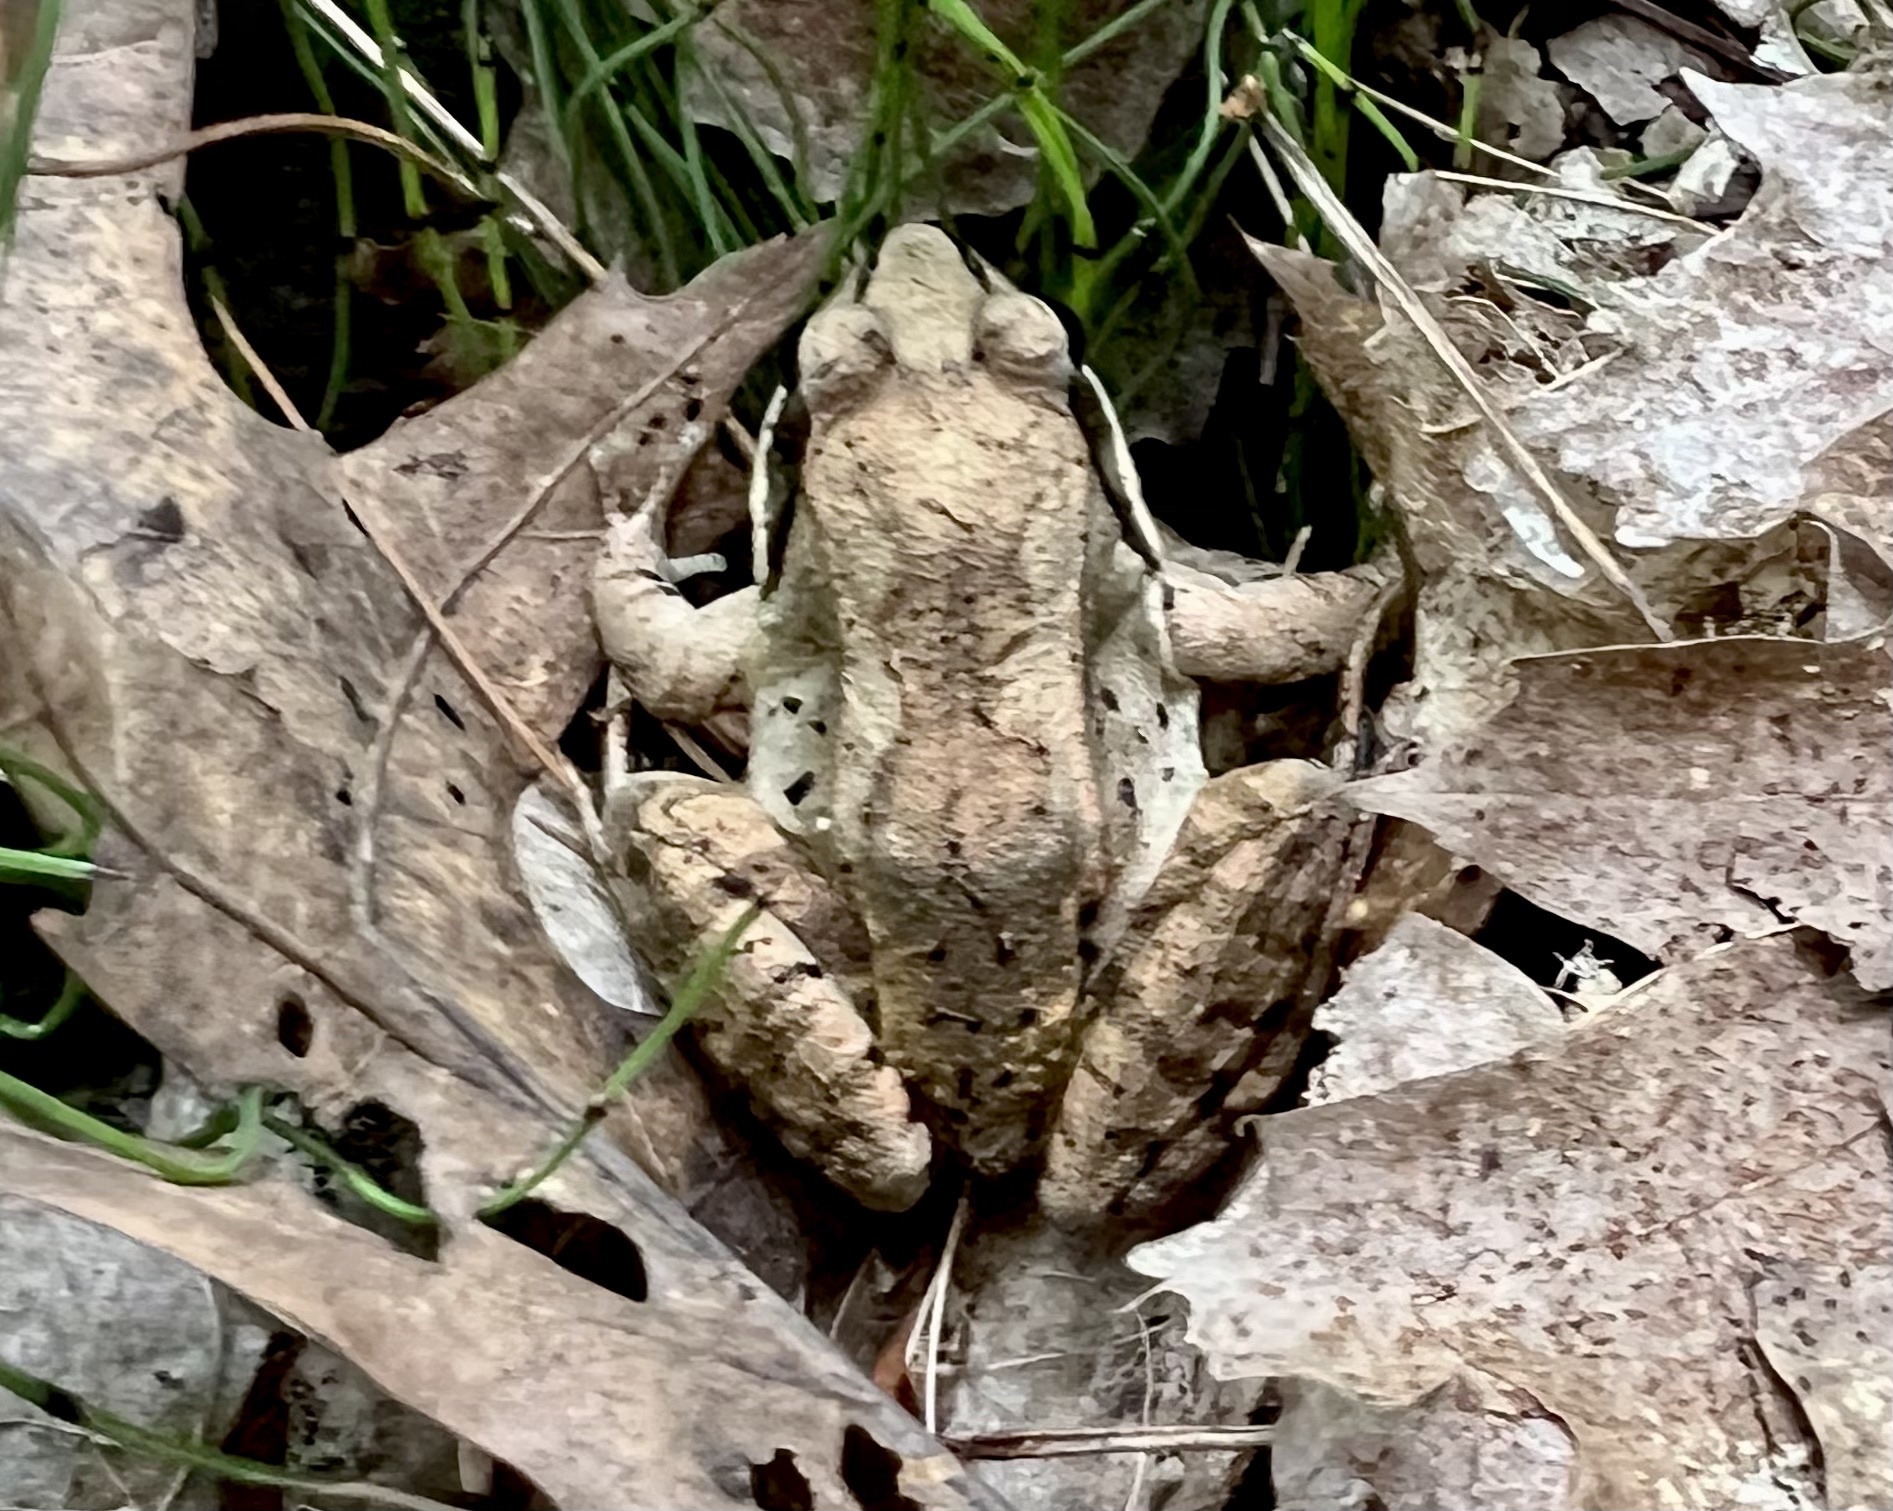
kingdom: Animalia
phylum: Chordata
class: Amphibia
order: Anura
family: Ranidae
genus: Lithobates
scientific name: Lithobates sylvaticus
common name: Wood frog
